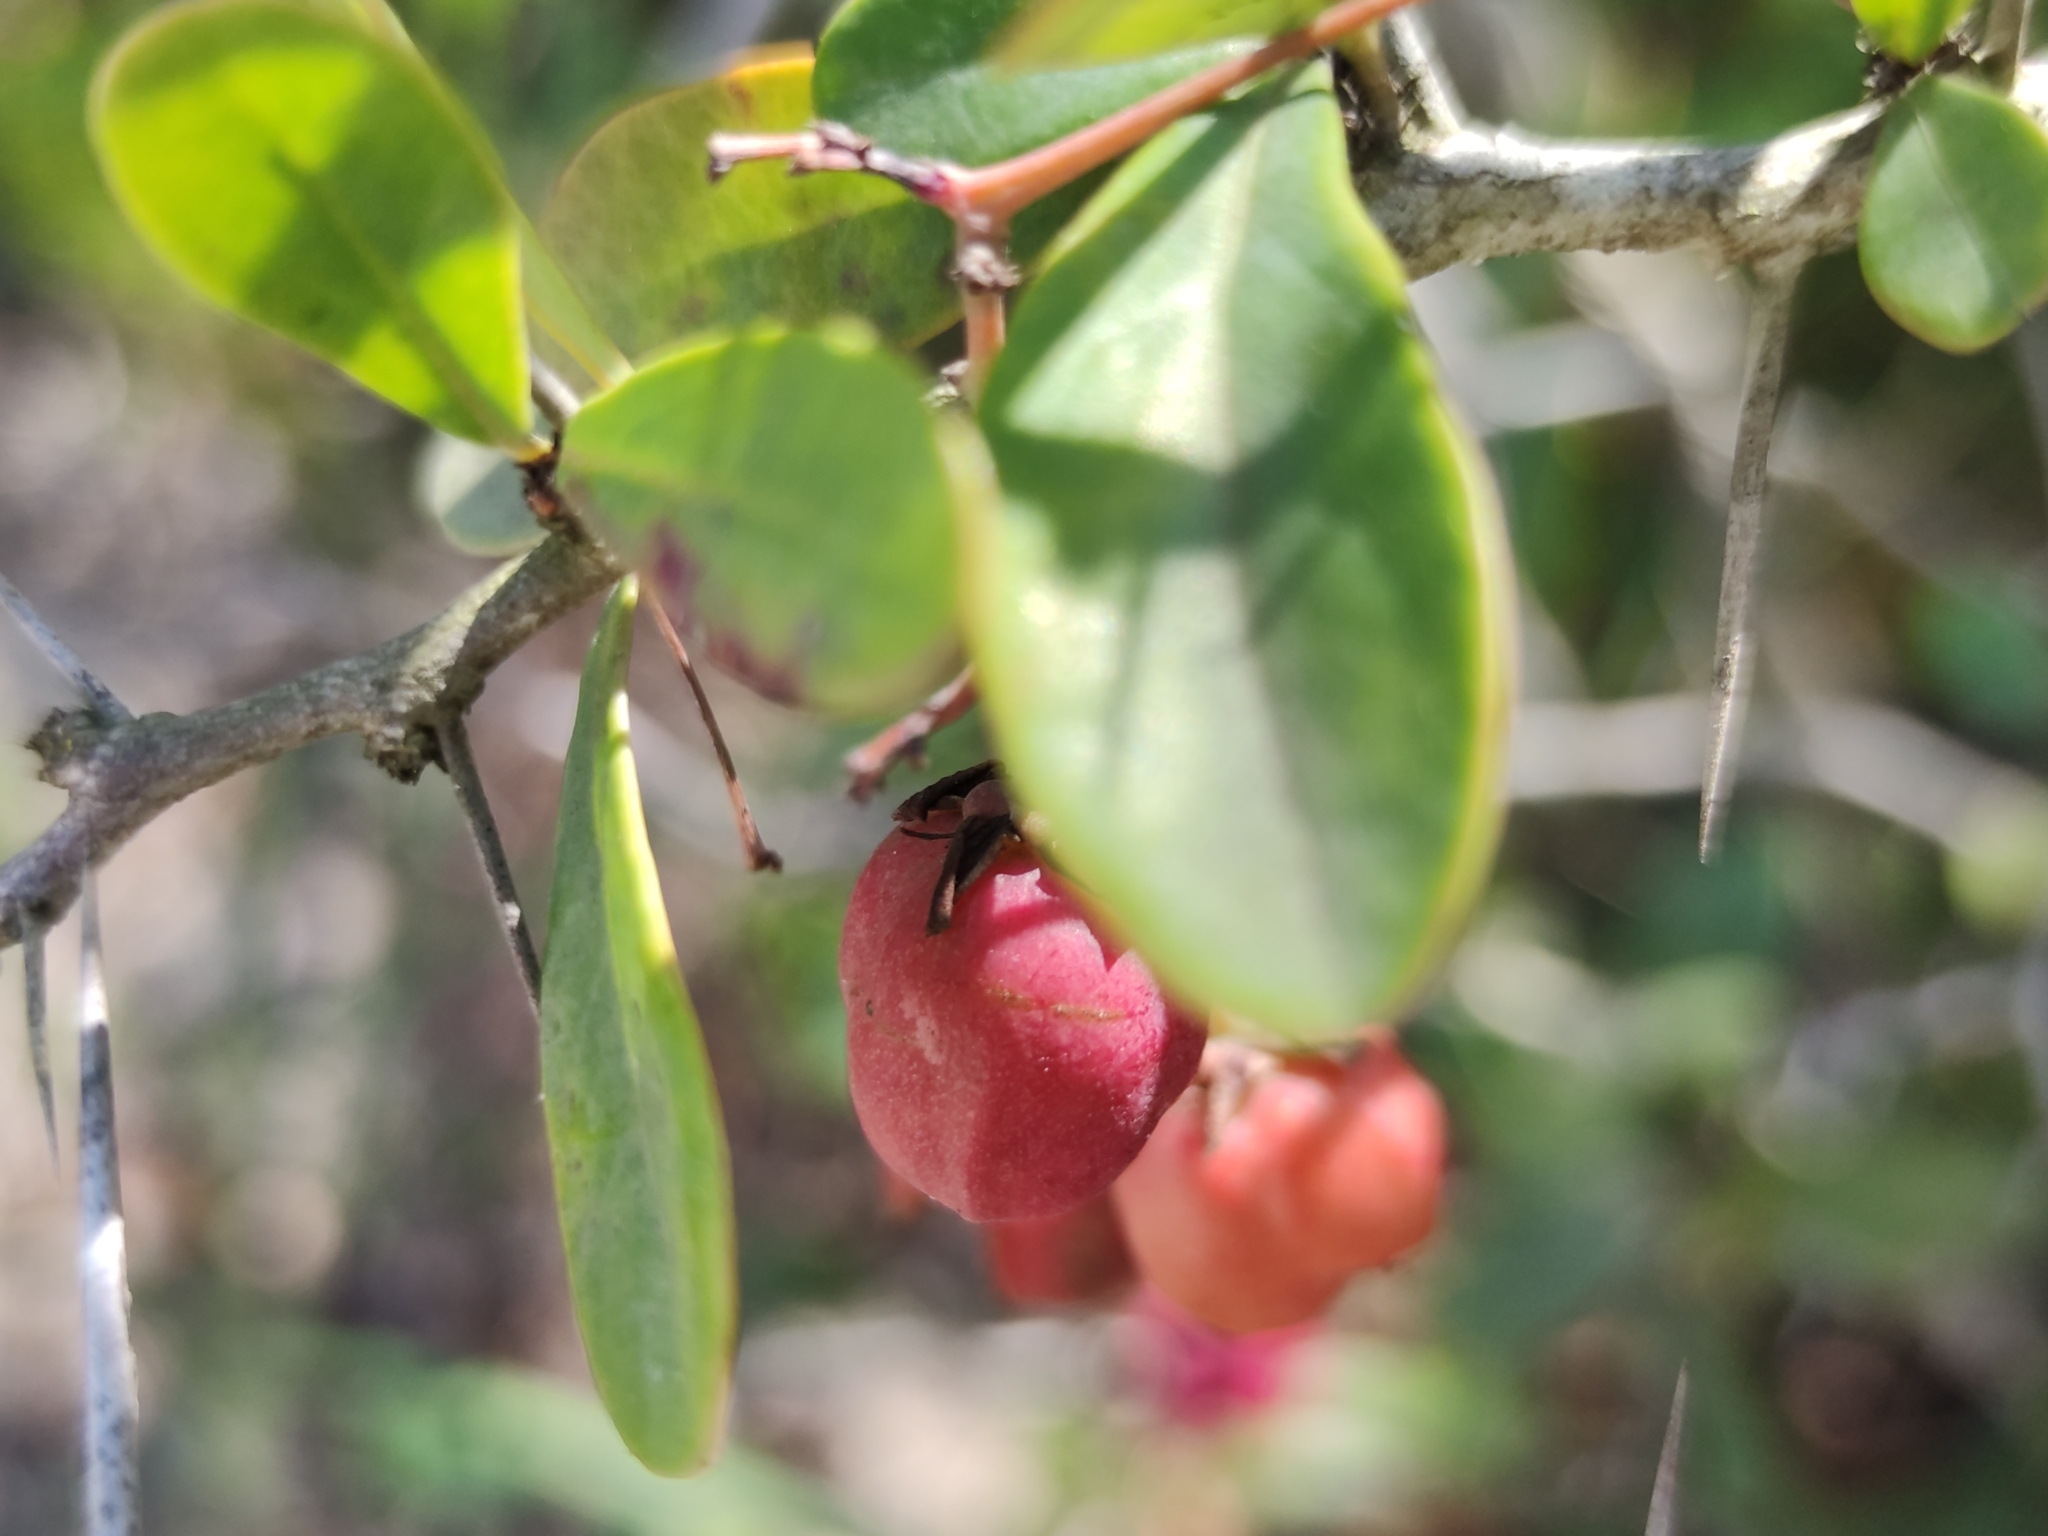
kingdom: Plantae
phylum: Tracheophyta
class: Magnoliopsida
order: Celastrales
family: Celastraceae
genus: Putterlickia
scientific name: Putterlickia pyracantha
